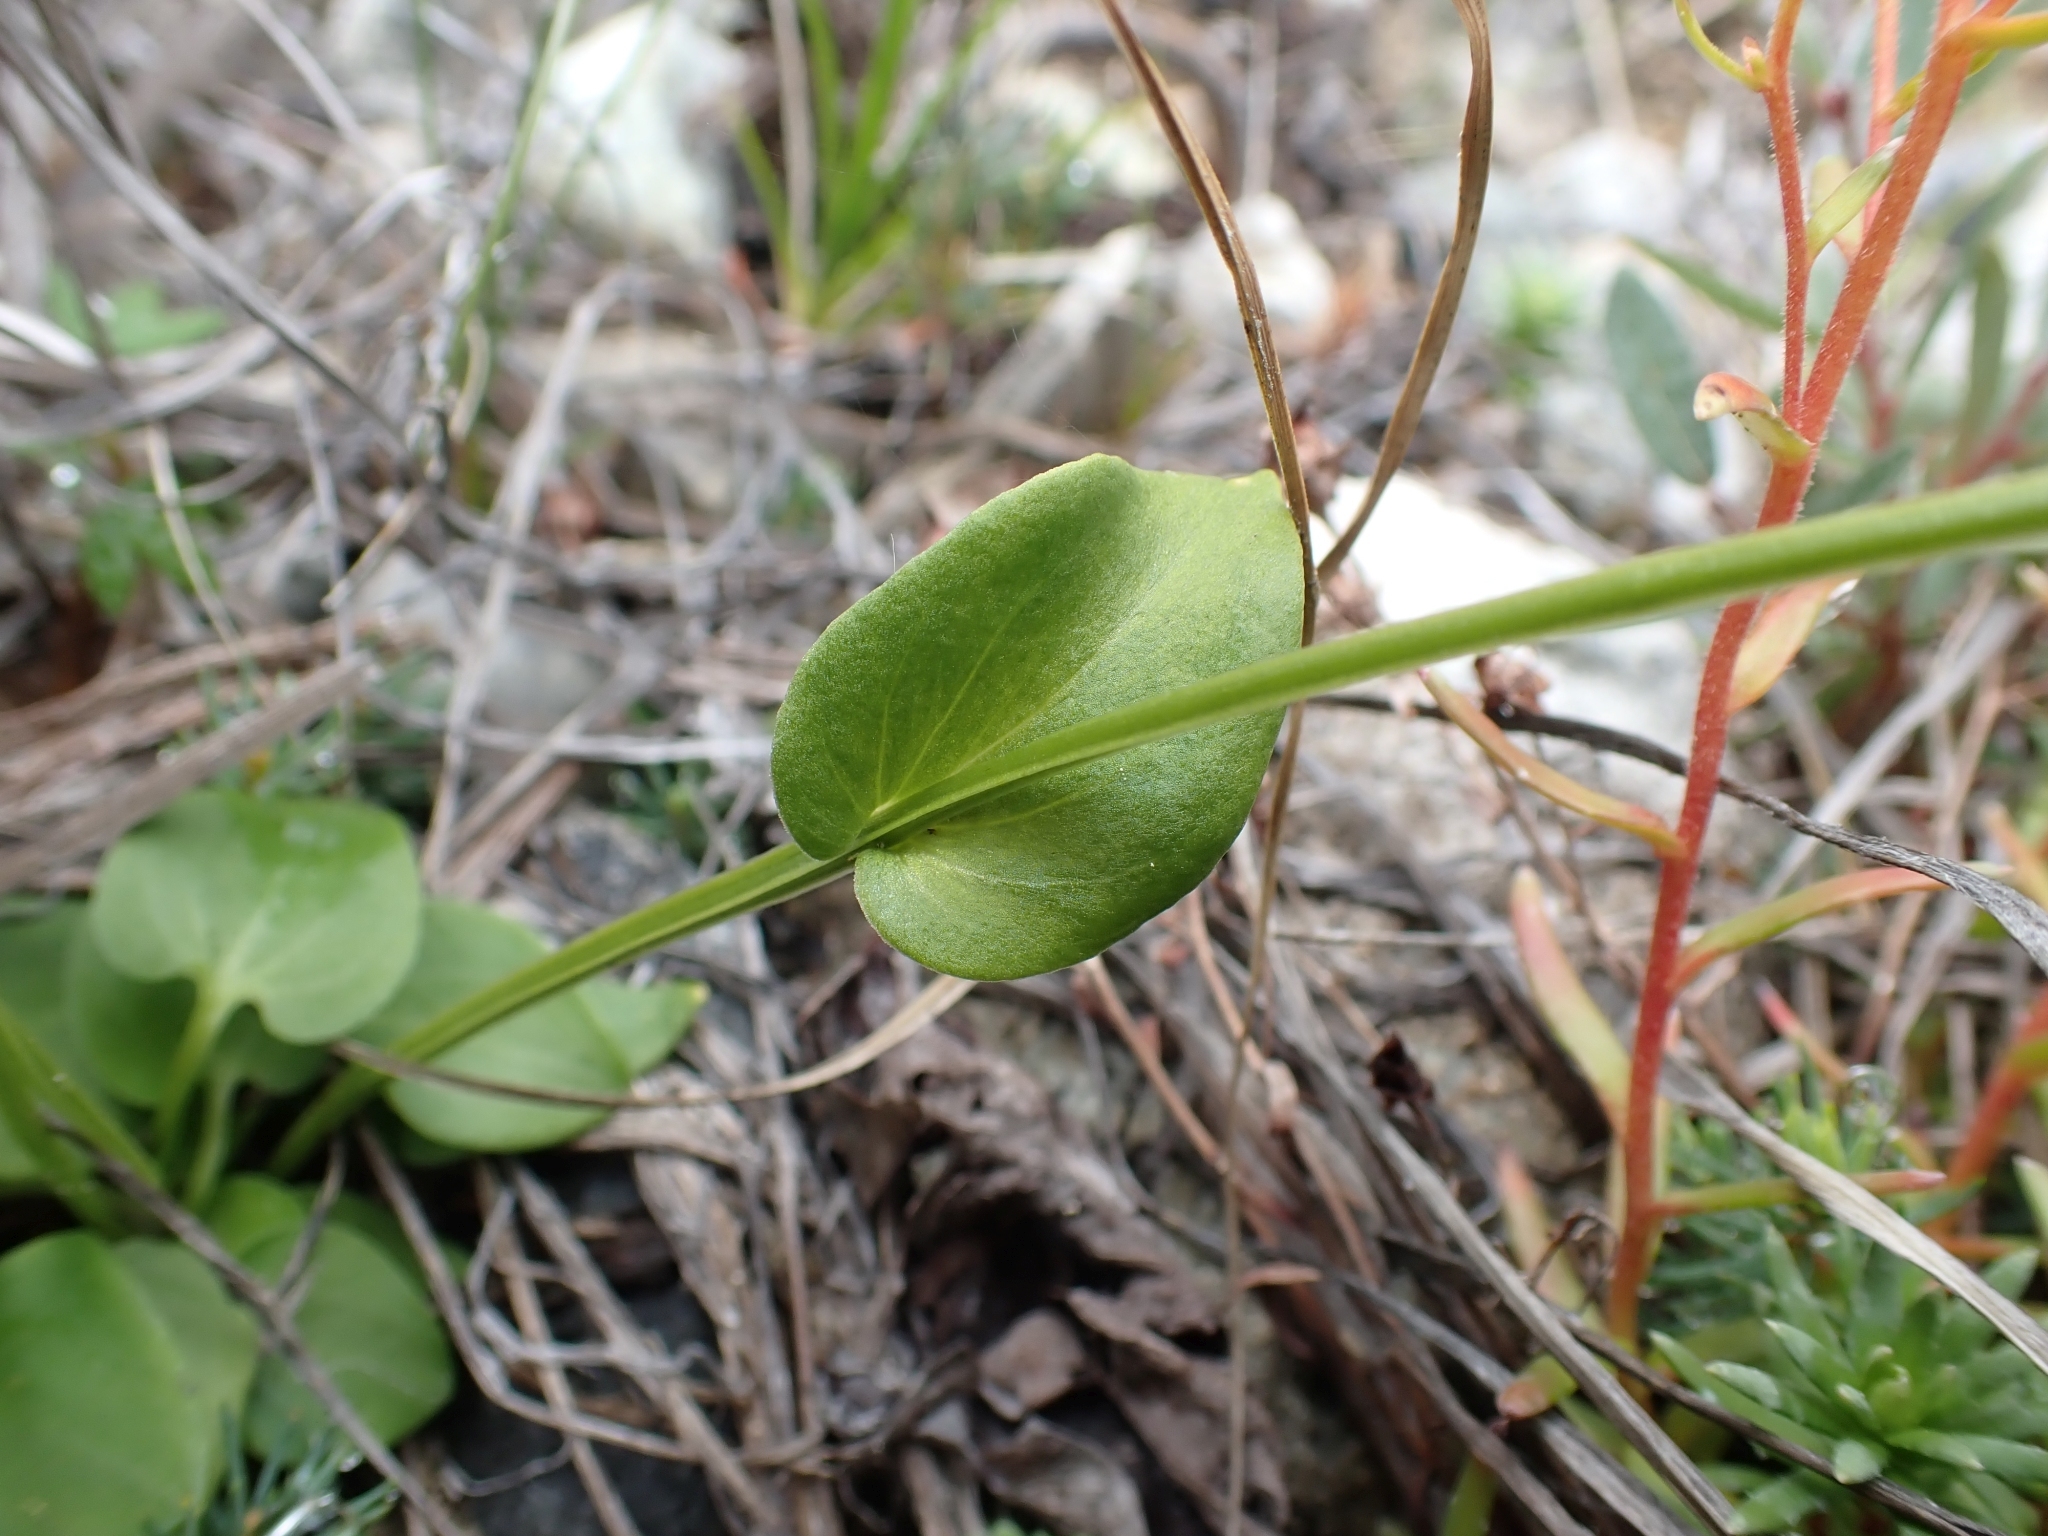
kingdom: Plantae
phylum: Tracheophyta
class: Magnoliopsida
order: Celastrales
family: Parnassiaceae
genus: Parnassia
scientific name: Parnassia palustris
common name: Grass-of-parnassus
